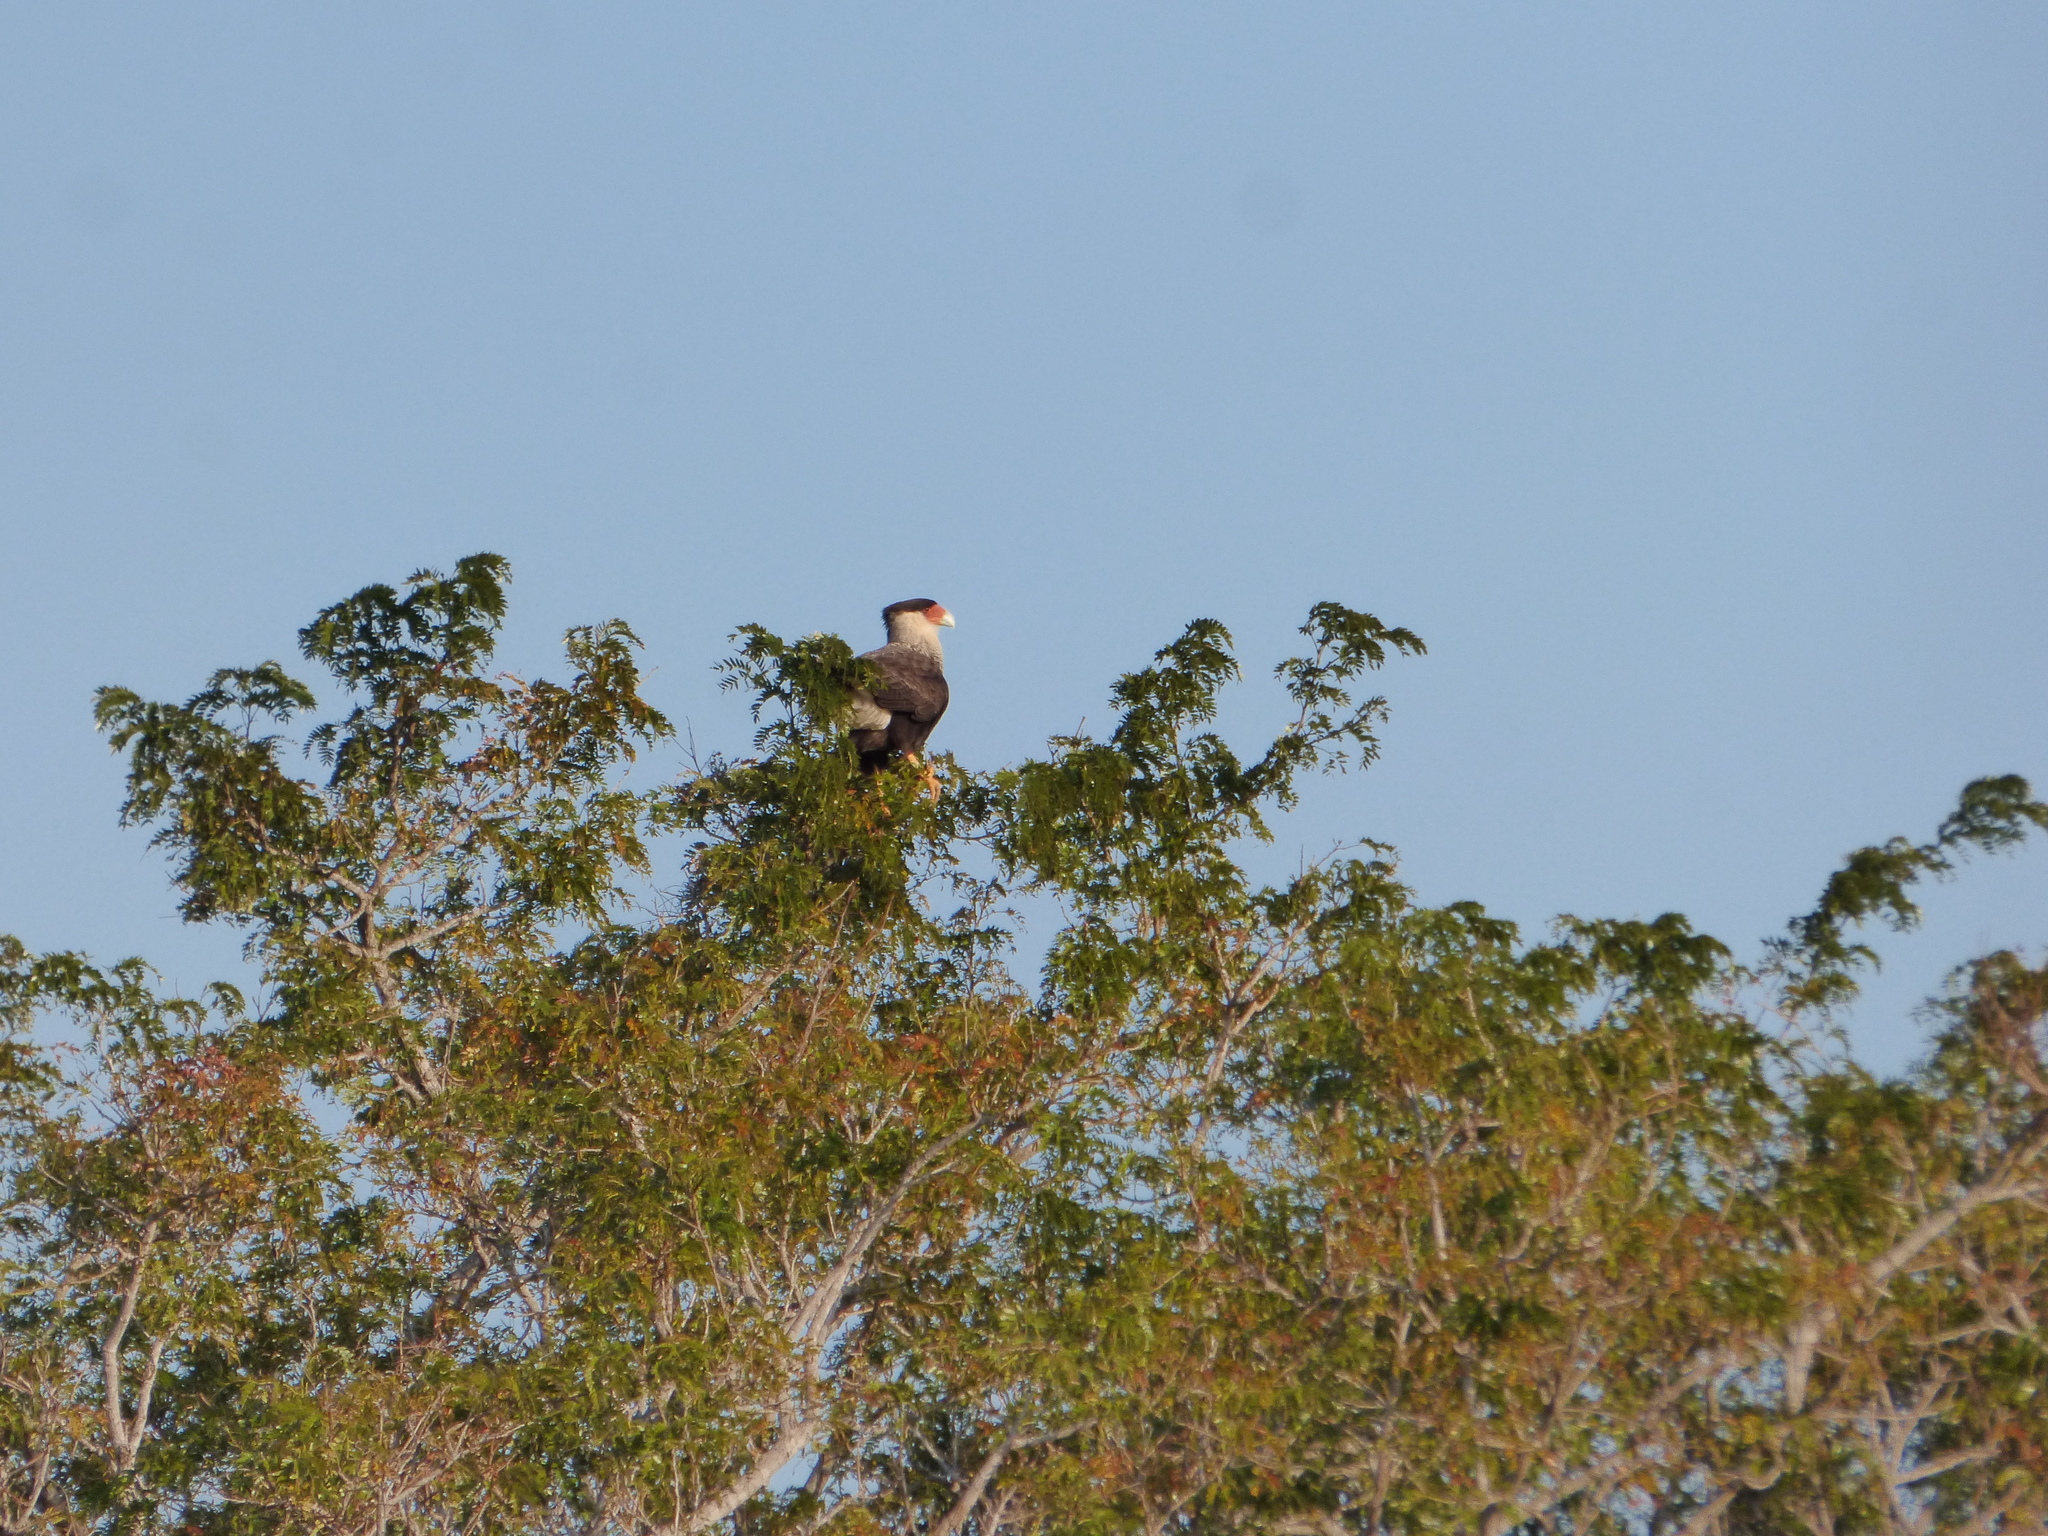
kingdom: Animalia
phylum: Chordata
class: Aves
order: Falconiformes
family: Falconidae
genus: Caracara
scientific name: Caracara plancus
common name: Southern caracara
